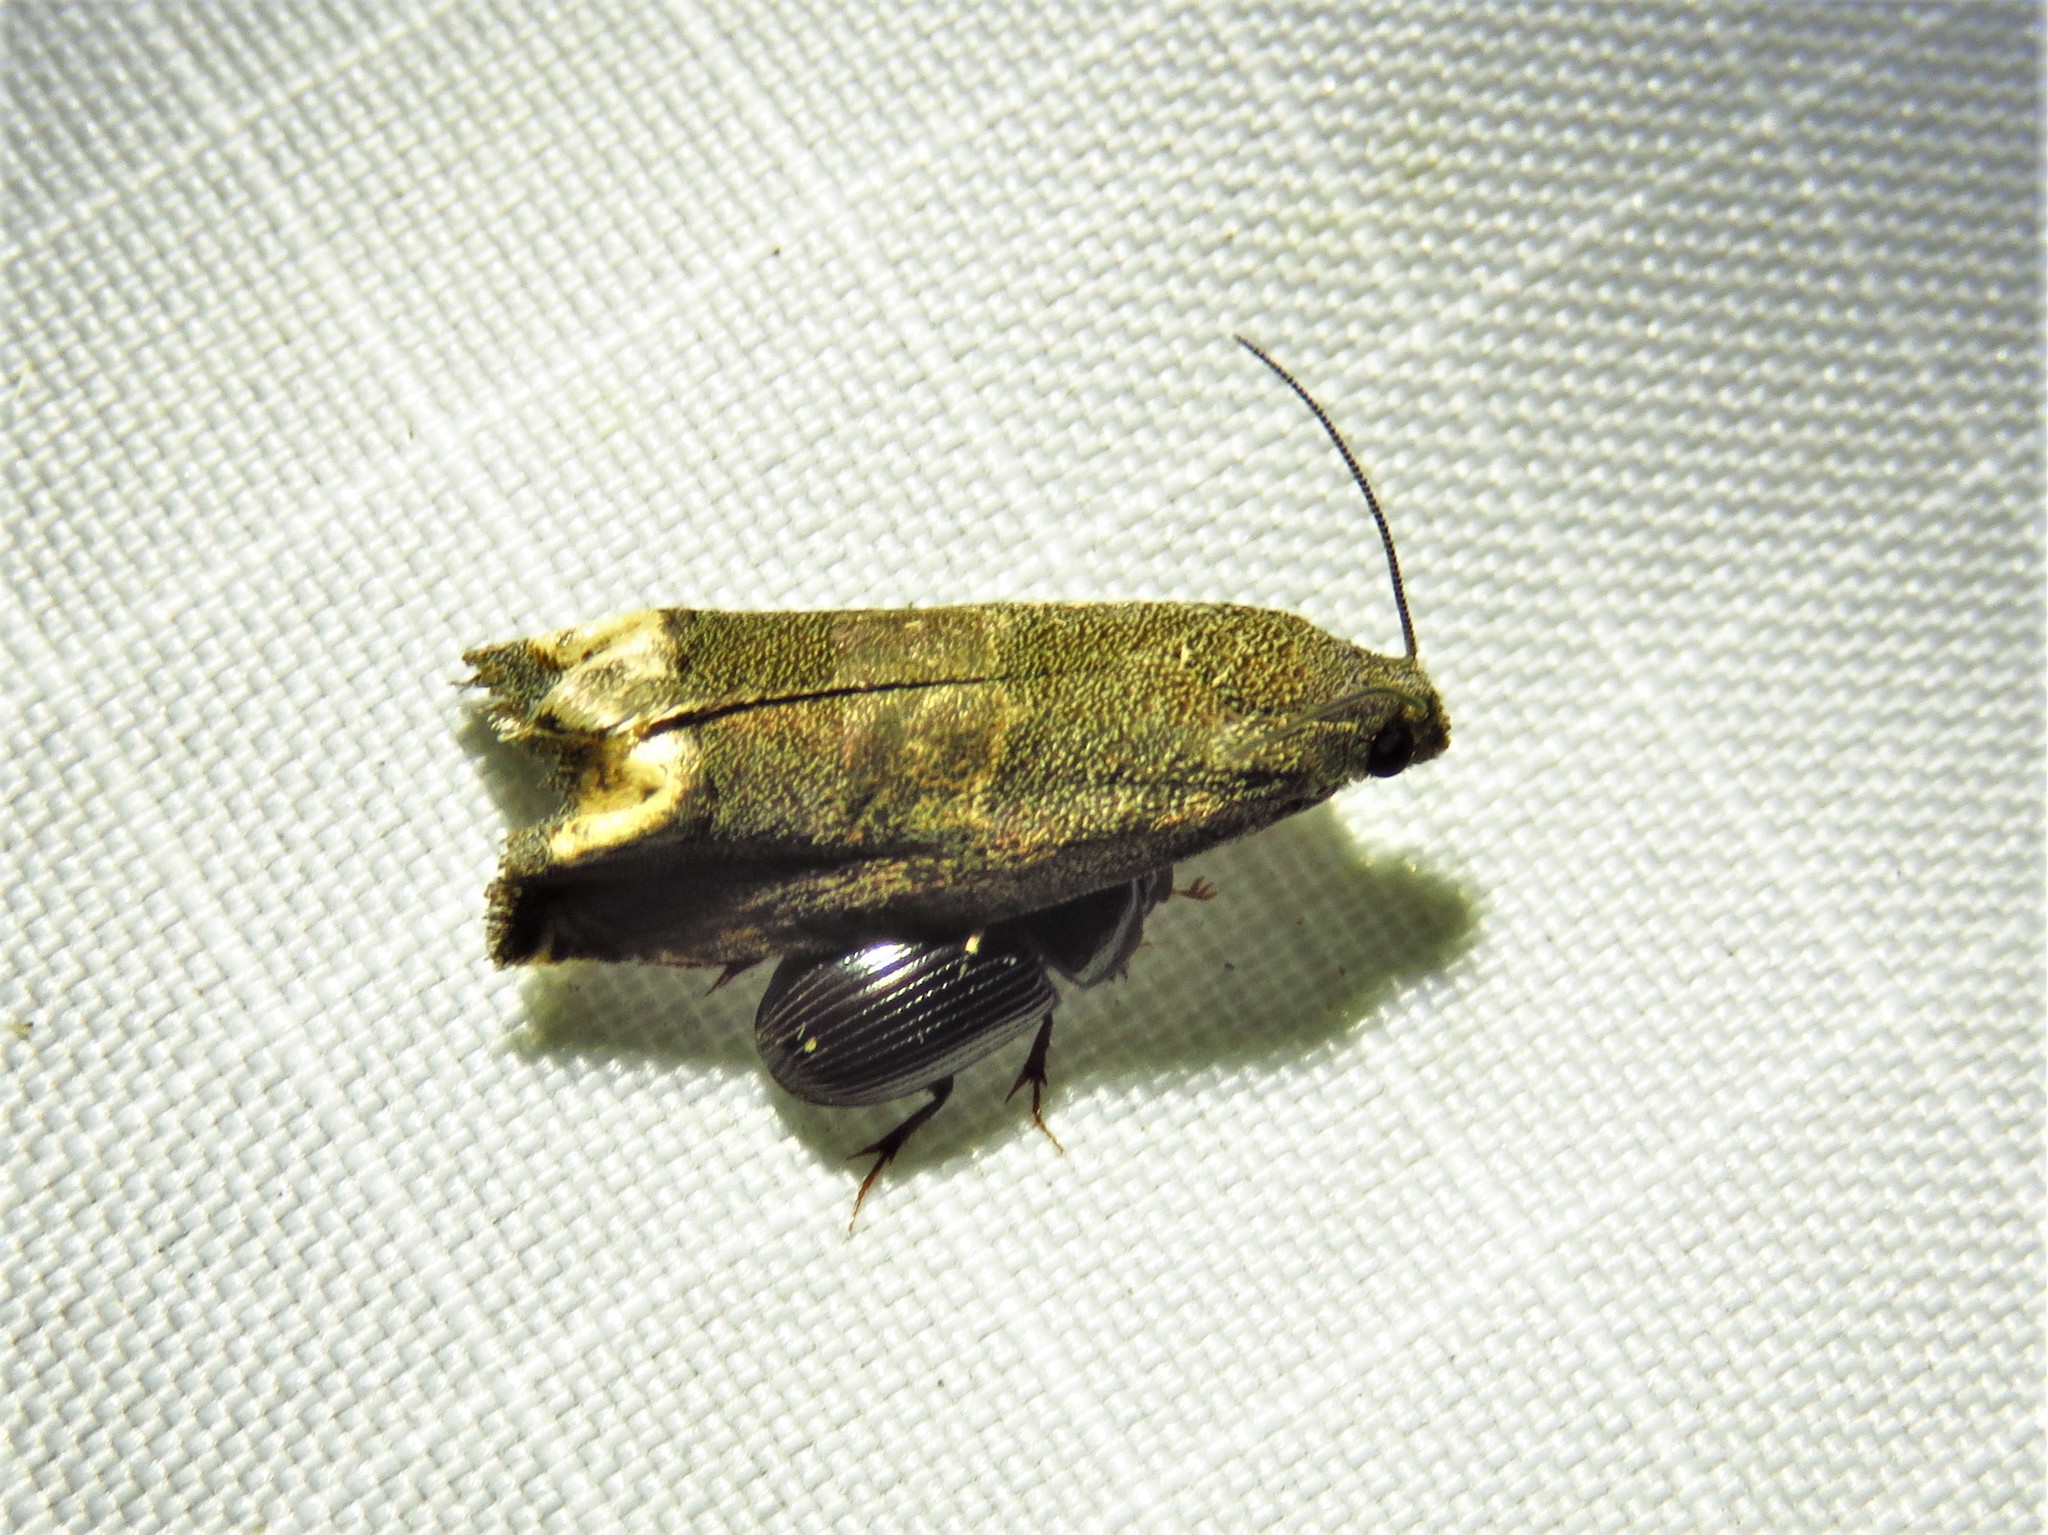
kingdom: Animalia
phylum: Arthropoda
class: Insecta
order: Lepidoptera
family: Tortricidae
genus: Epiblema
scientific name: Epiblema strenuana
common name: Ragweed borer moth
